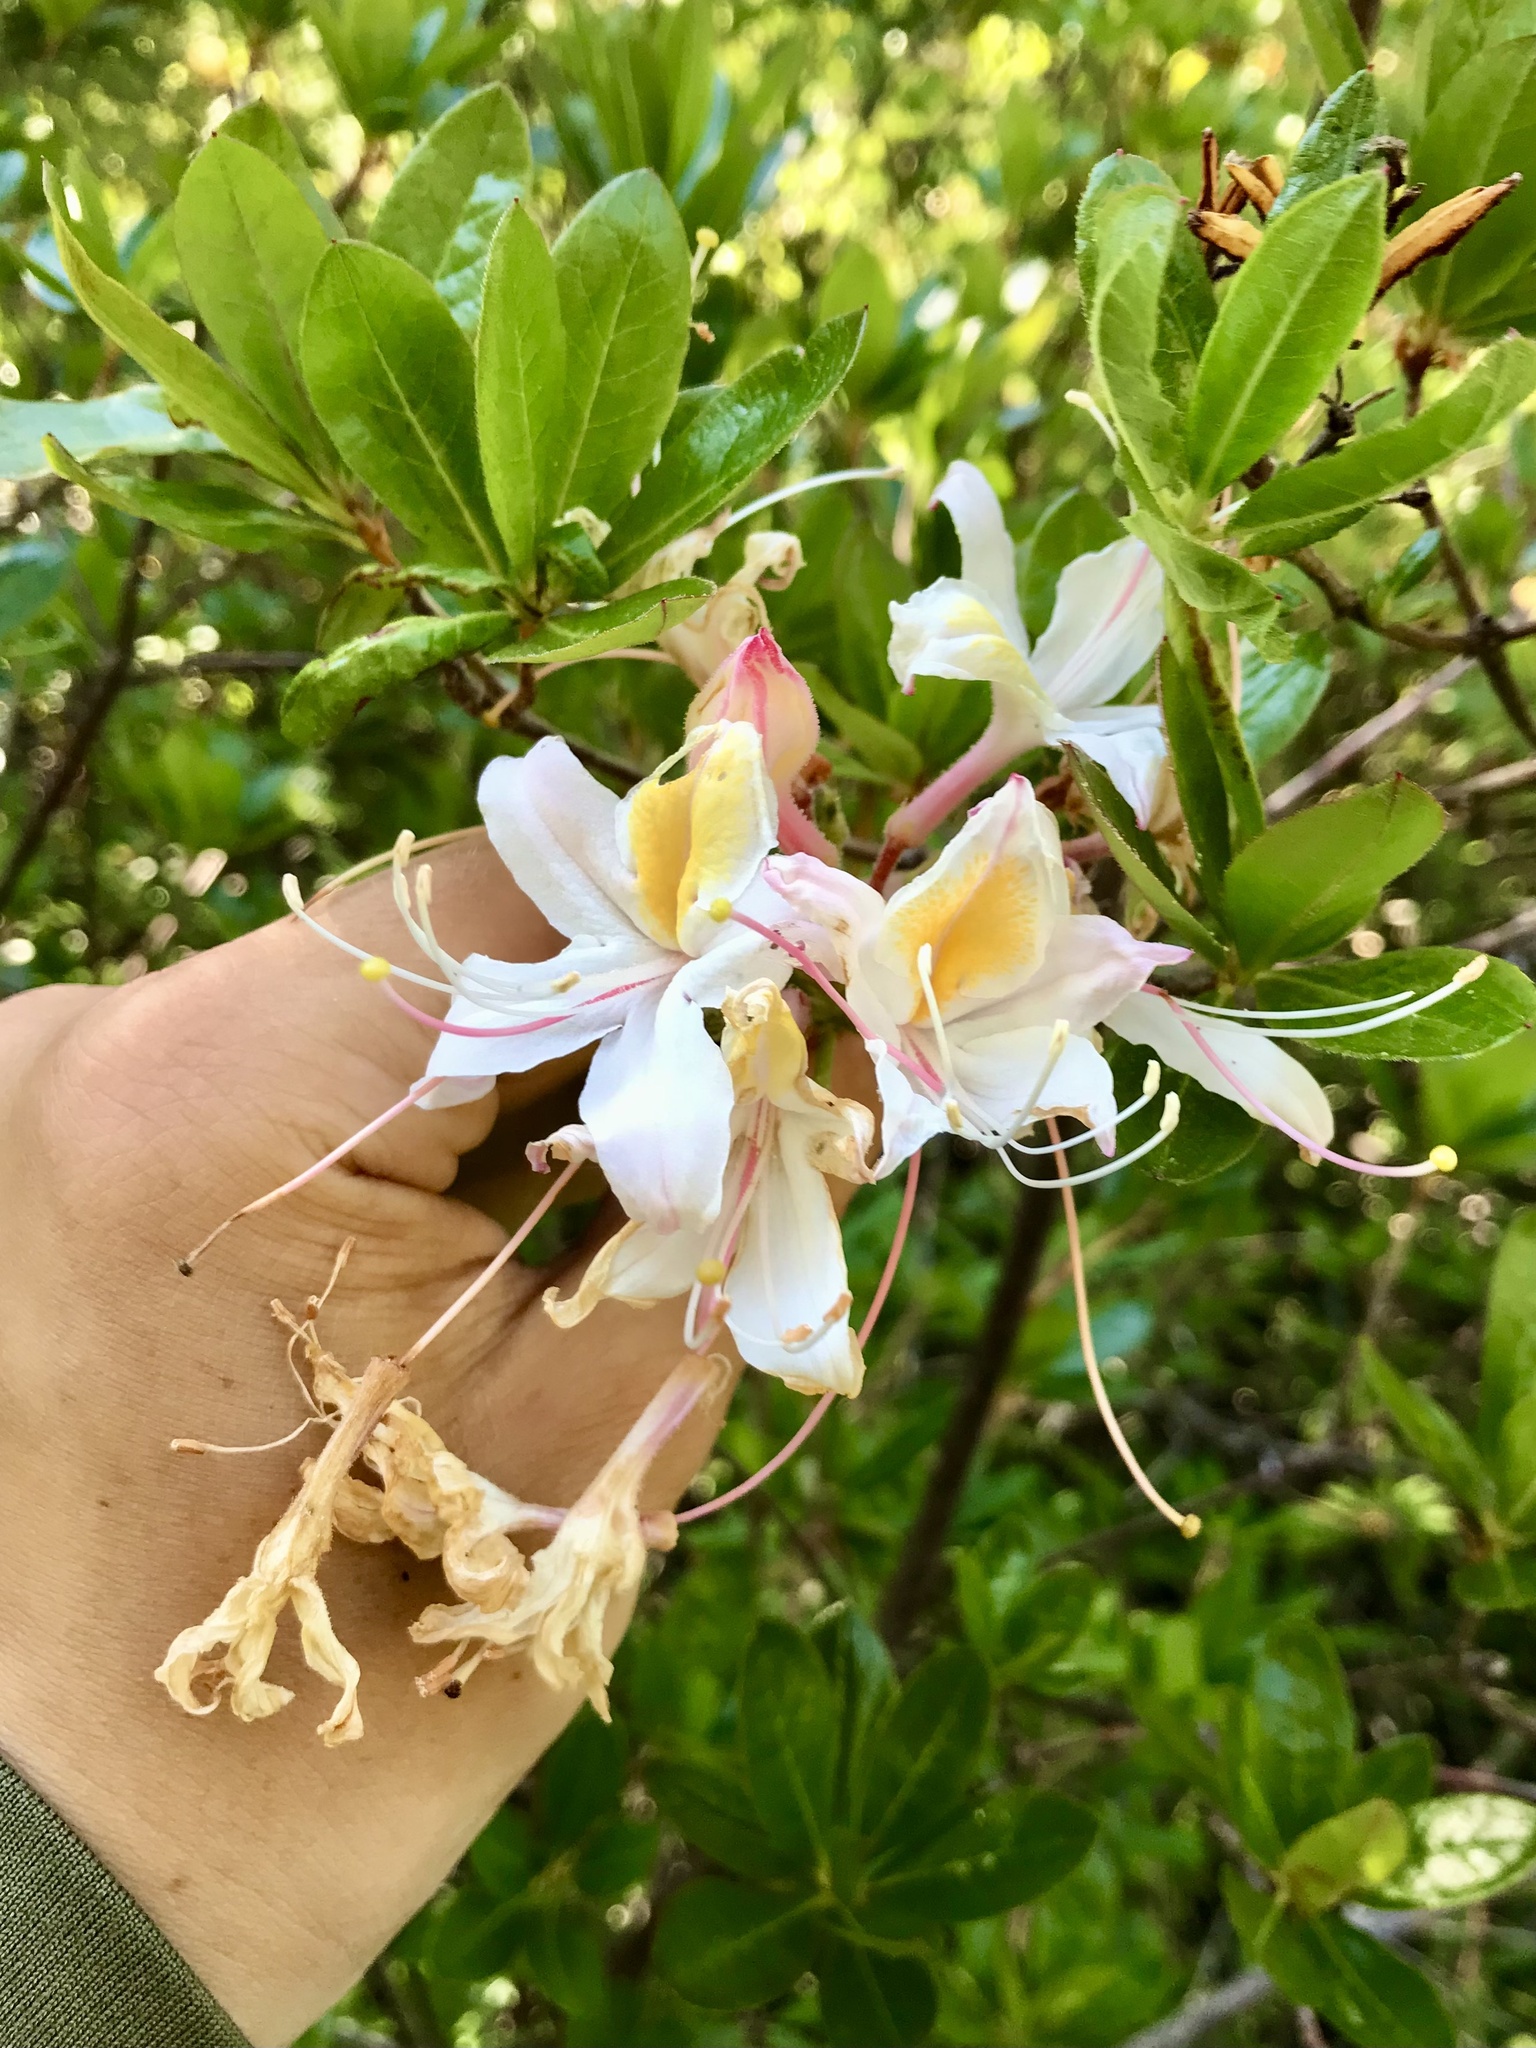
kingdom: Plantae
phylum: Tracheophyta
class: Magnoliopsida
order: Ericales
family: Ericaceae
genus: Rhododendron
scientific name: Rhododendron occidentale
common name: Western azalea
